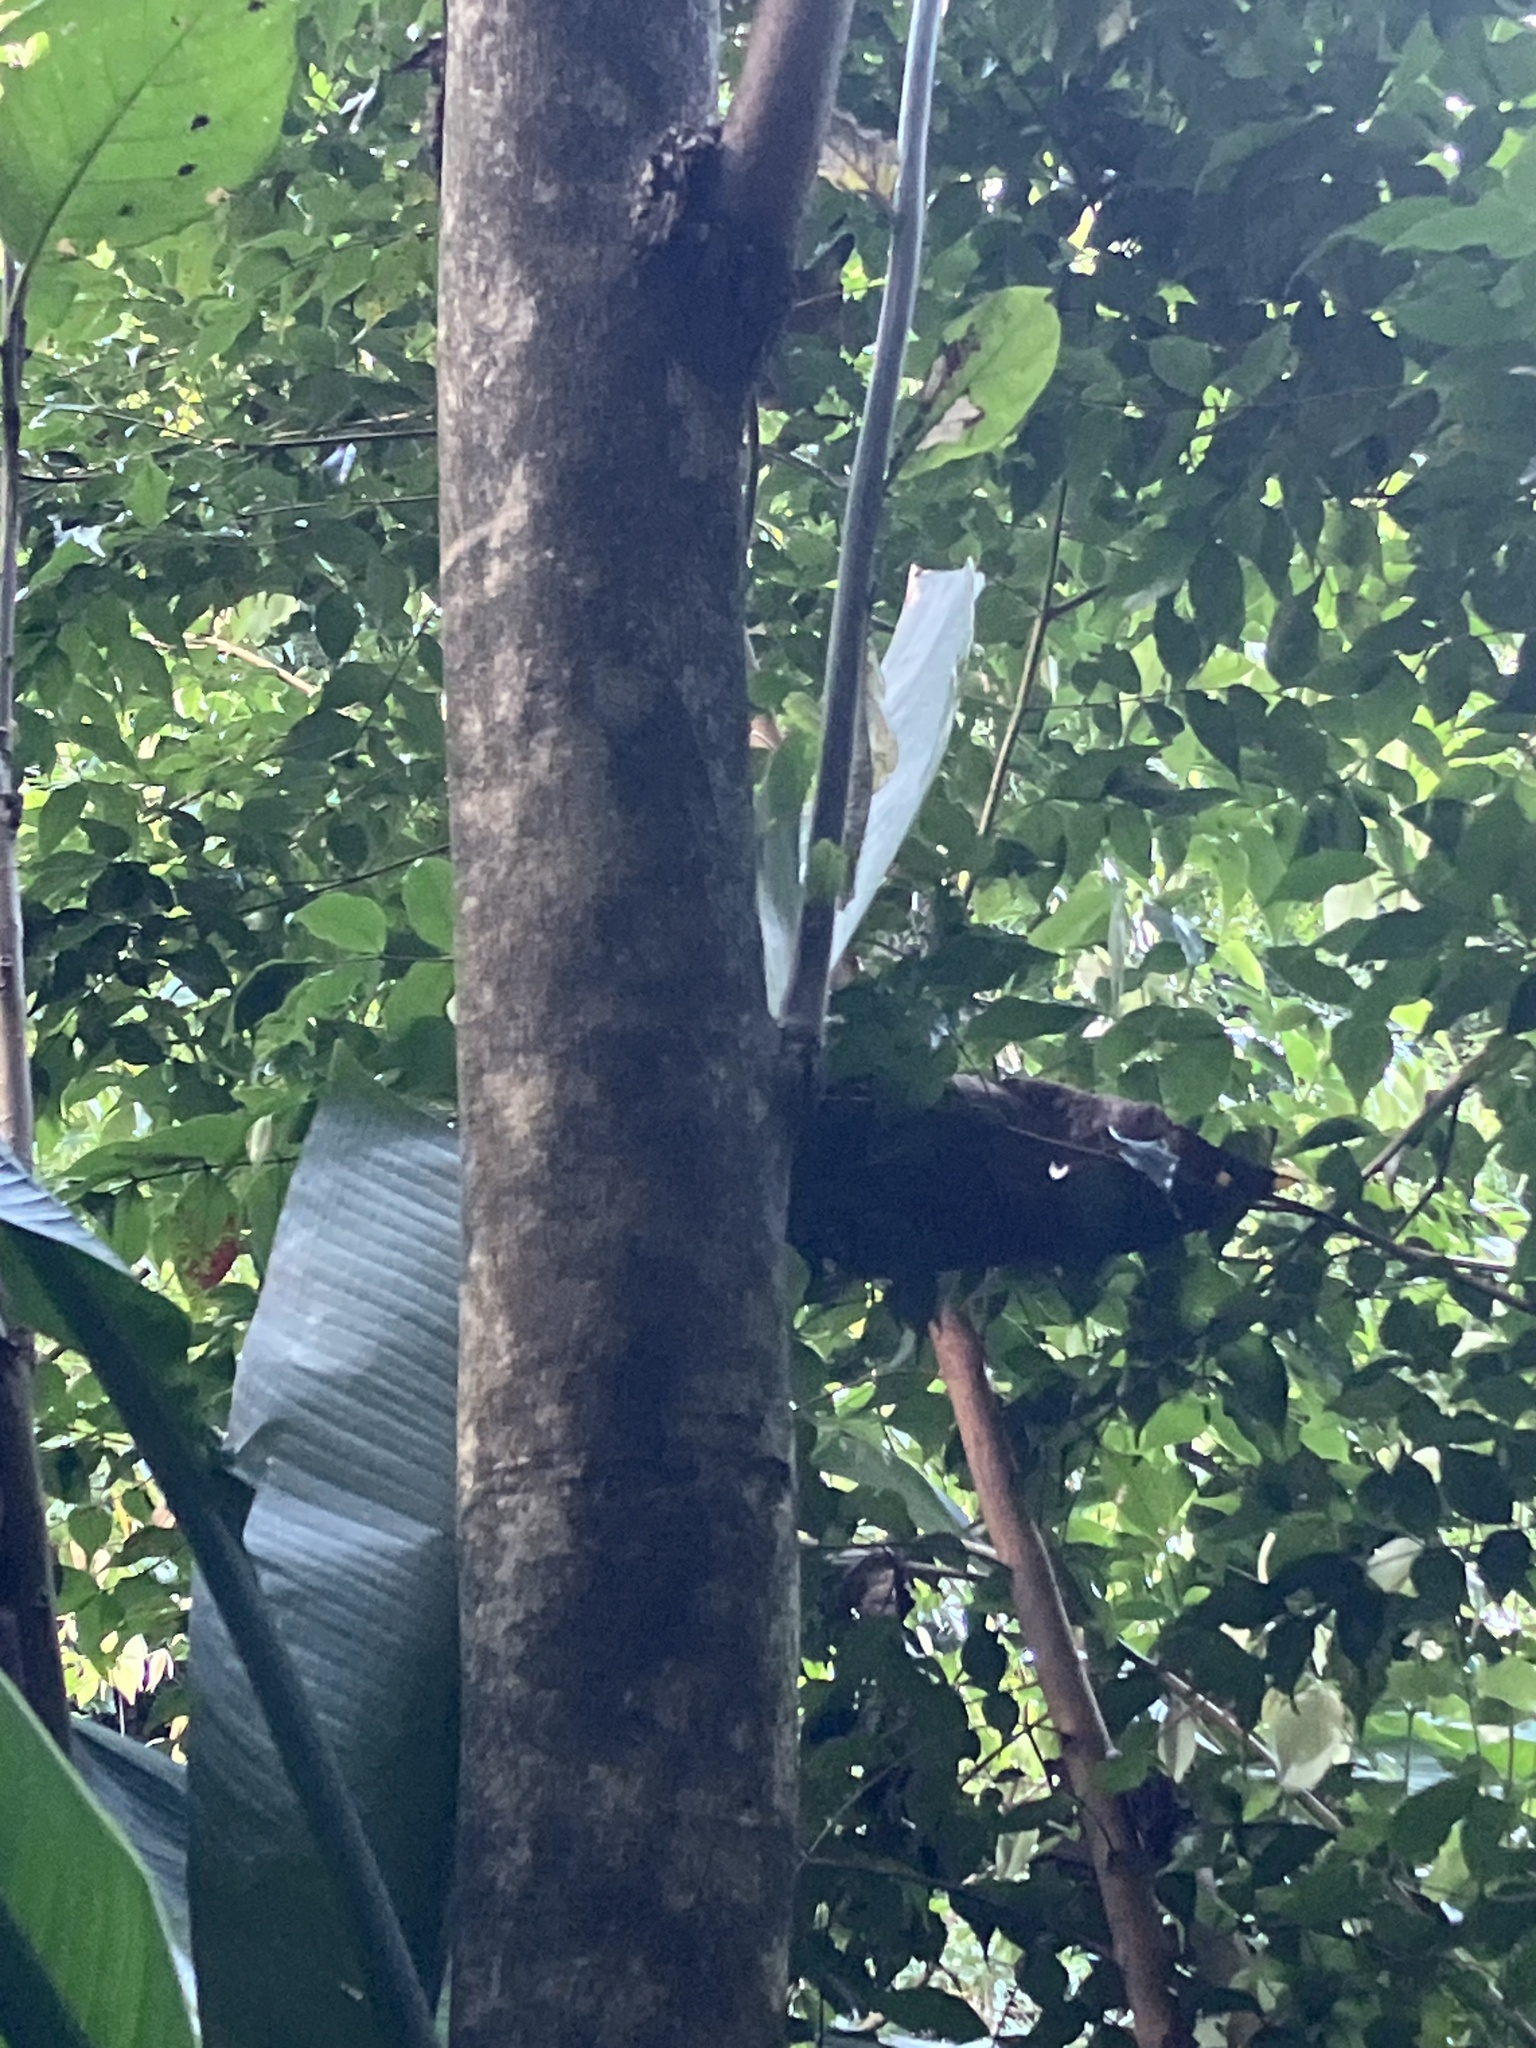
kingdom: Plantae
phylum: Tracheophyta
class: Magnoliopsida
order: Boraginales
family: Cordiaceae
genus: Cordia
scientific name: Cordia sulcata
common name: White manjack
